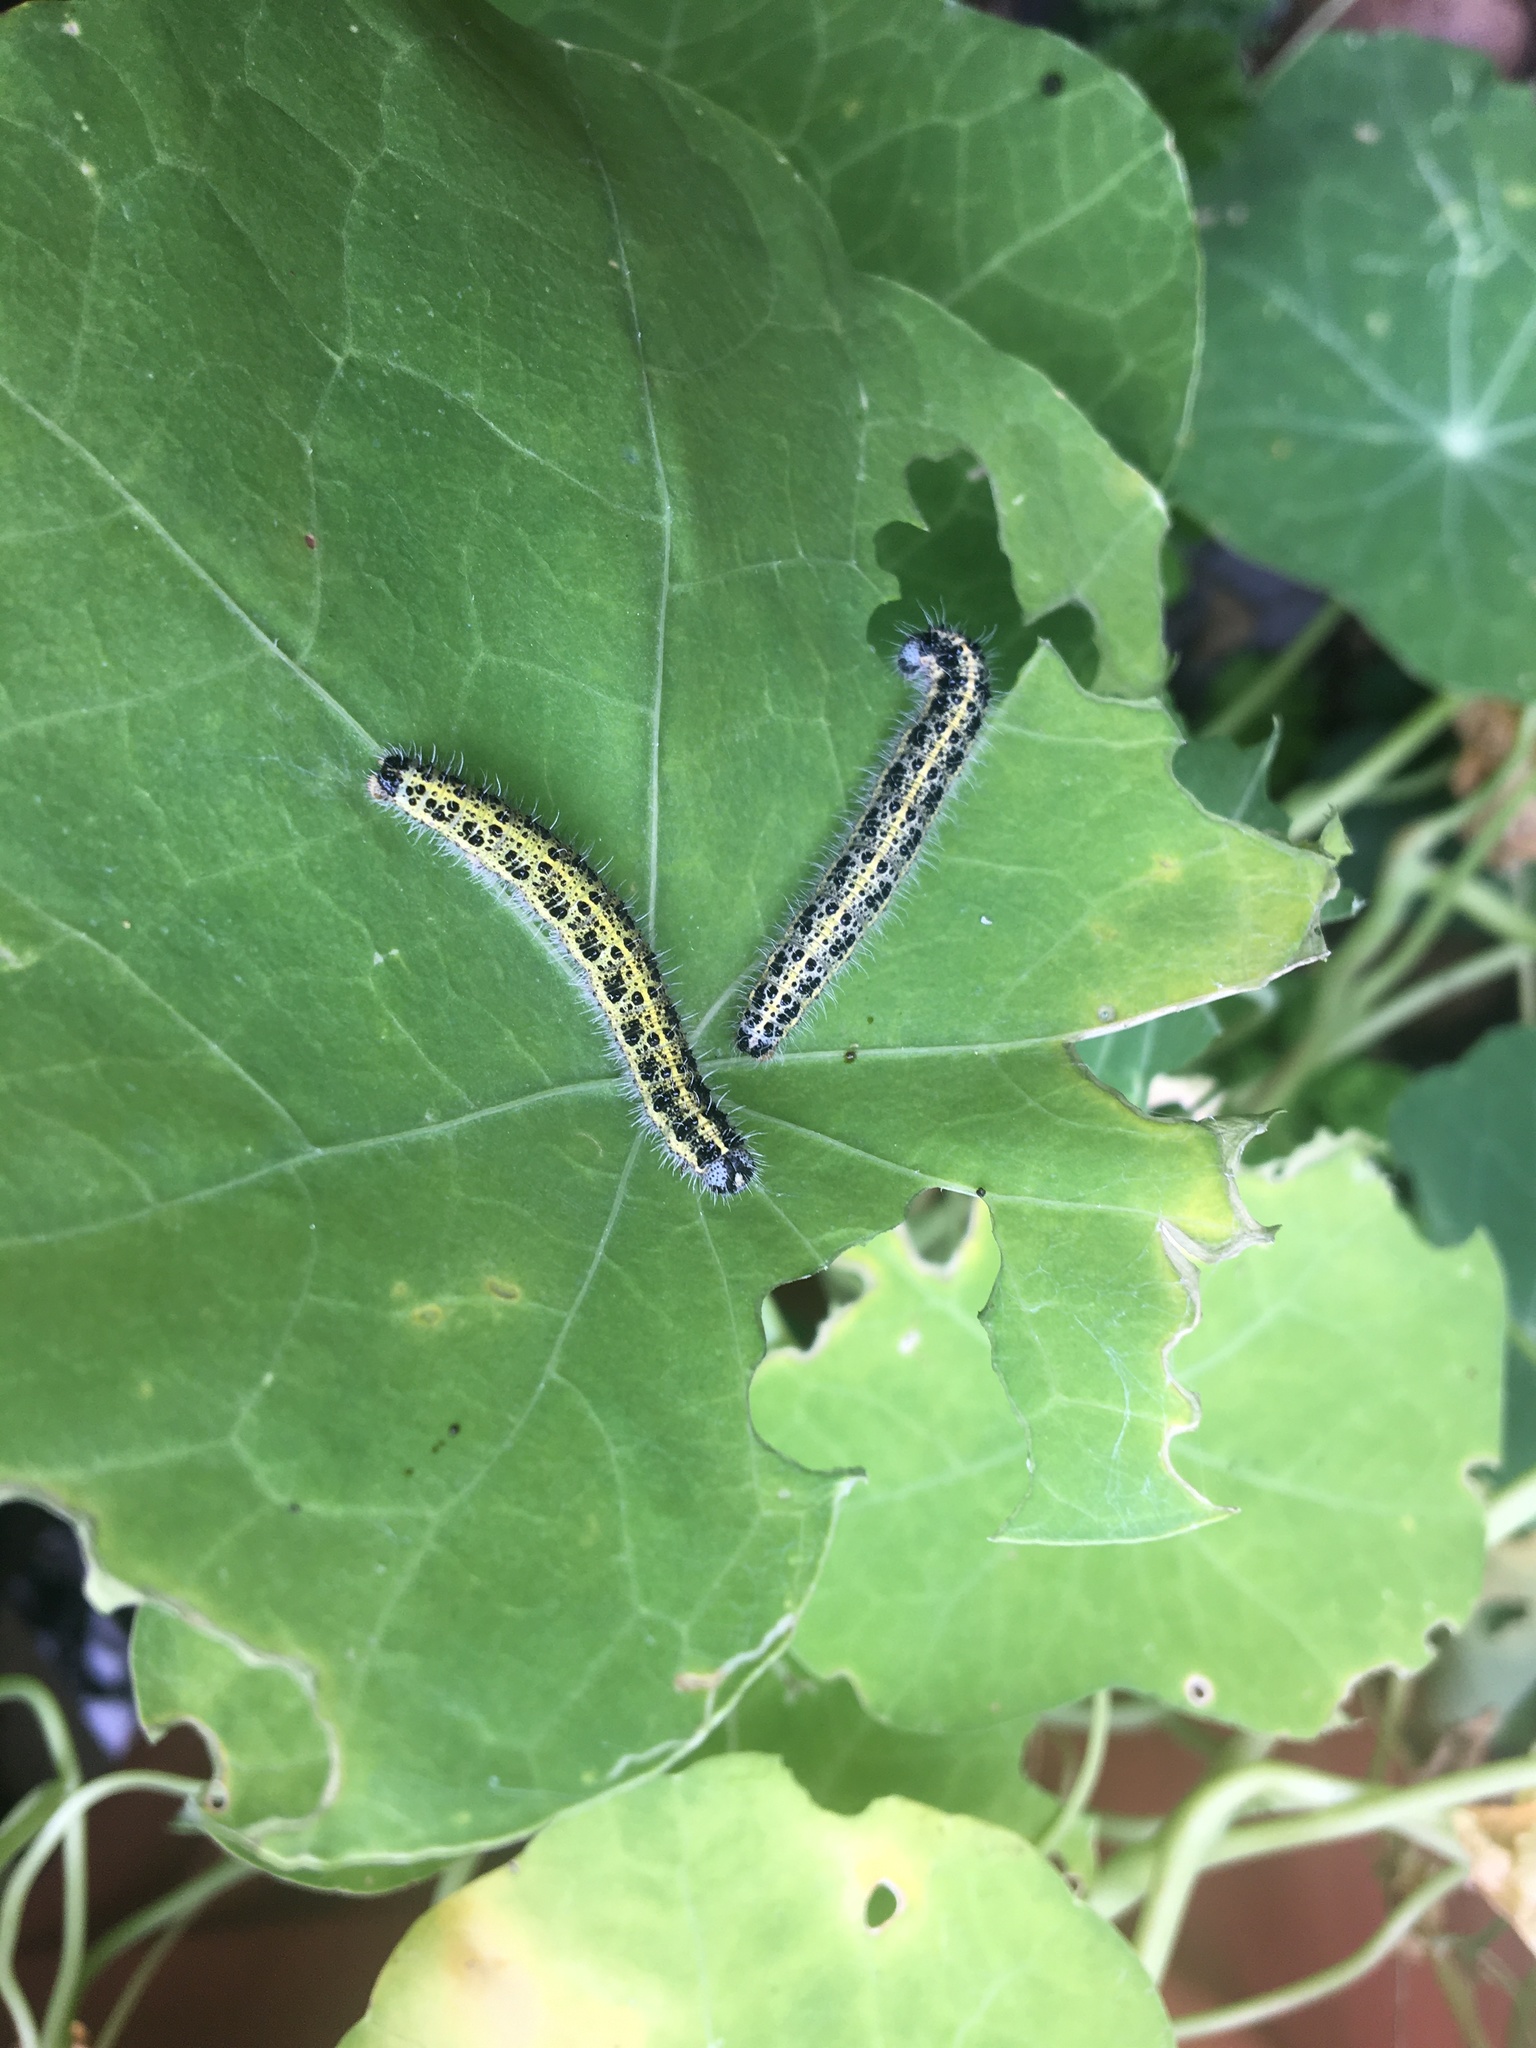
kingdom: Animalia
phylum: Arthropoda
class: Insecta
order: Lepidoptera
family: Pieridae
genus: Pieris
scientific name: Pieris brassicae
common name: Large white
